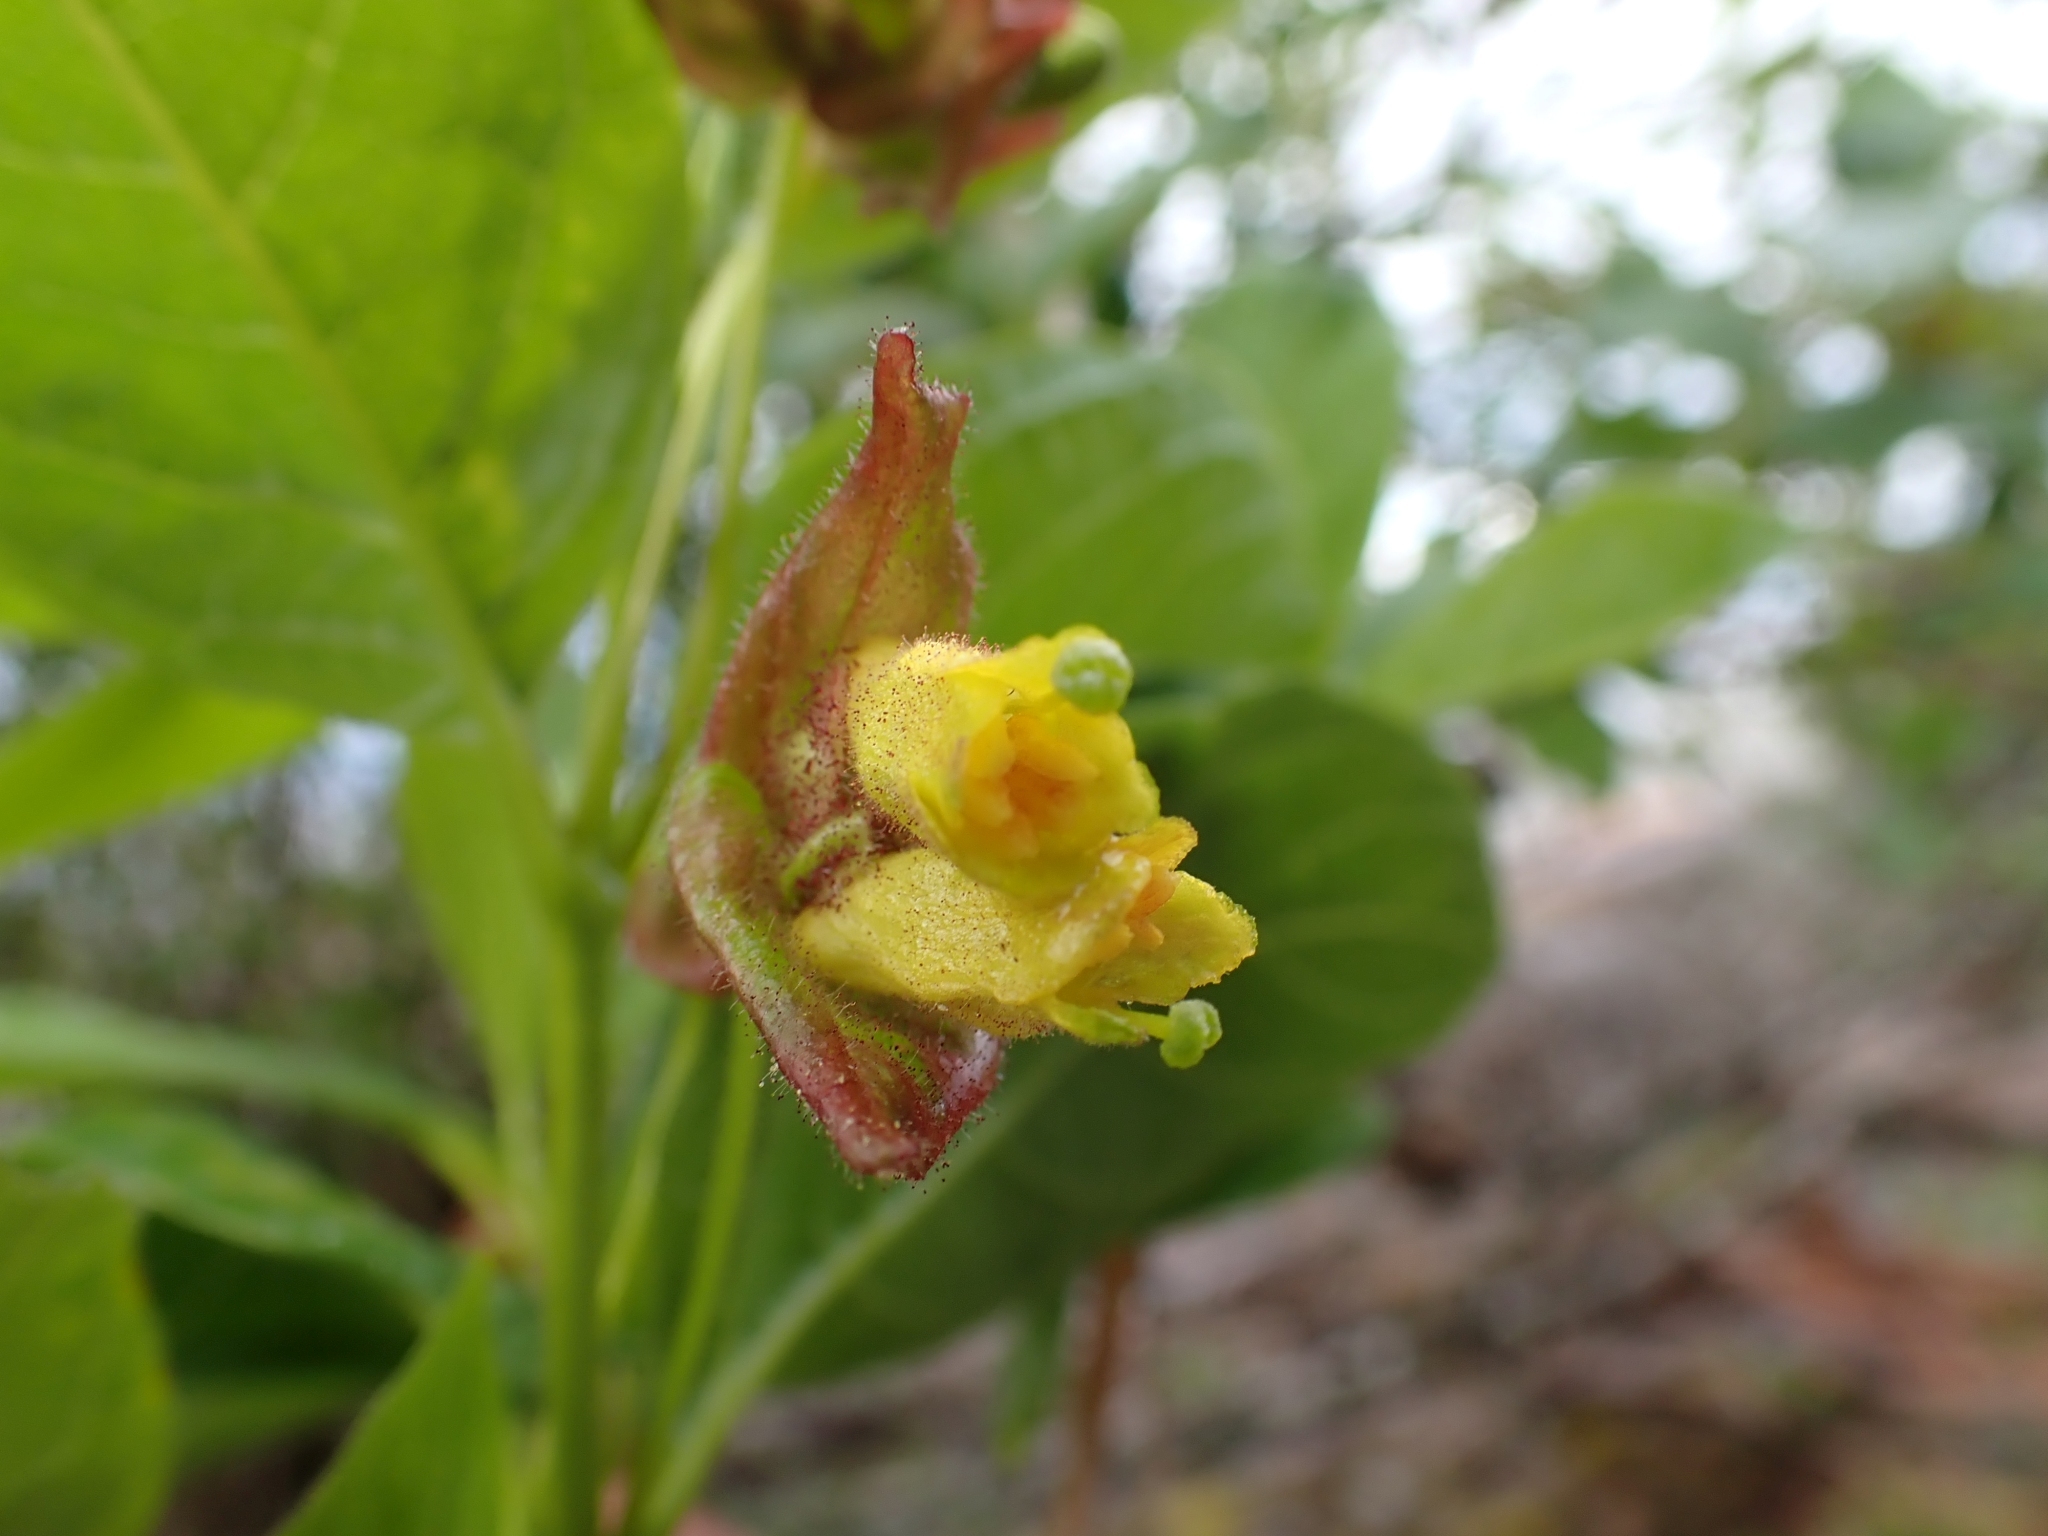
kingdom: Plantae
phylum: Tracheophyta
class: Magnoliopsida
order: Dipsacales
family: Caprifoliaceae
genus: Lonicera
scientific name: Lonicera involucrata
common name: Californian honeysuckle
